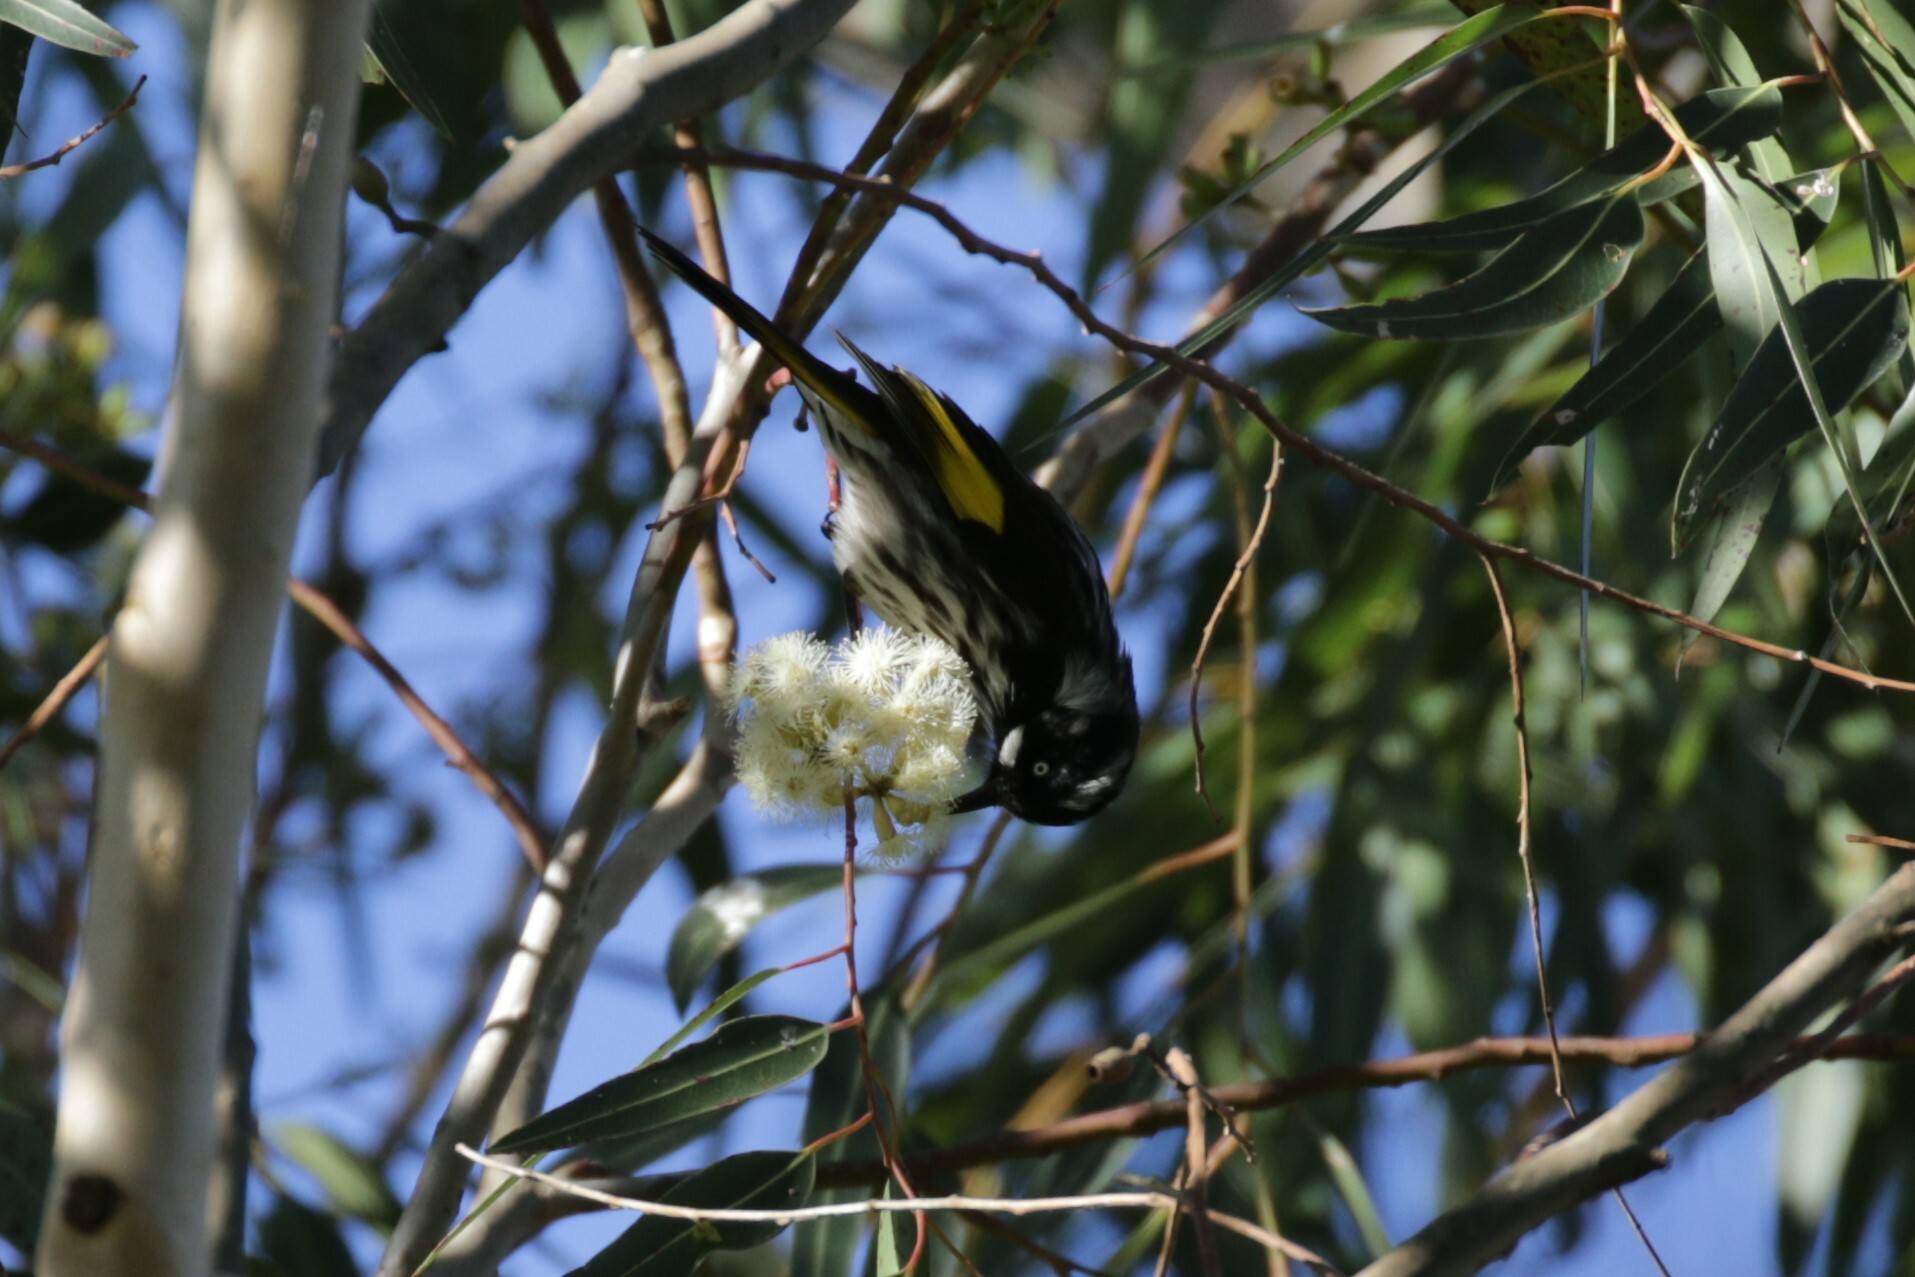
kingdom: Animalia
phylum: Chordata
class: Aves
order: Passeriformes
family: Meliphagidae
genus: Phylidonyris
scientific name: Phylidonyris novaehollandiae
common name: New holland honeyeater
